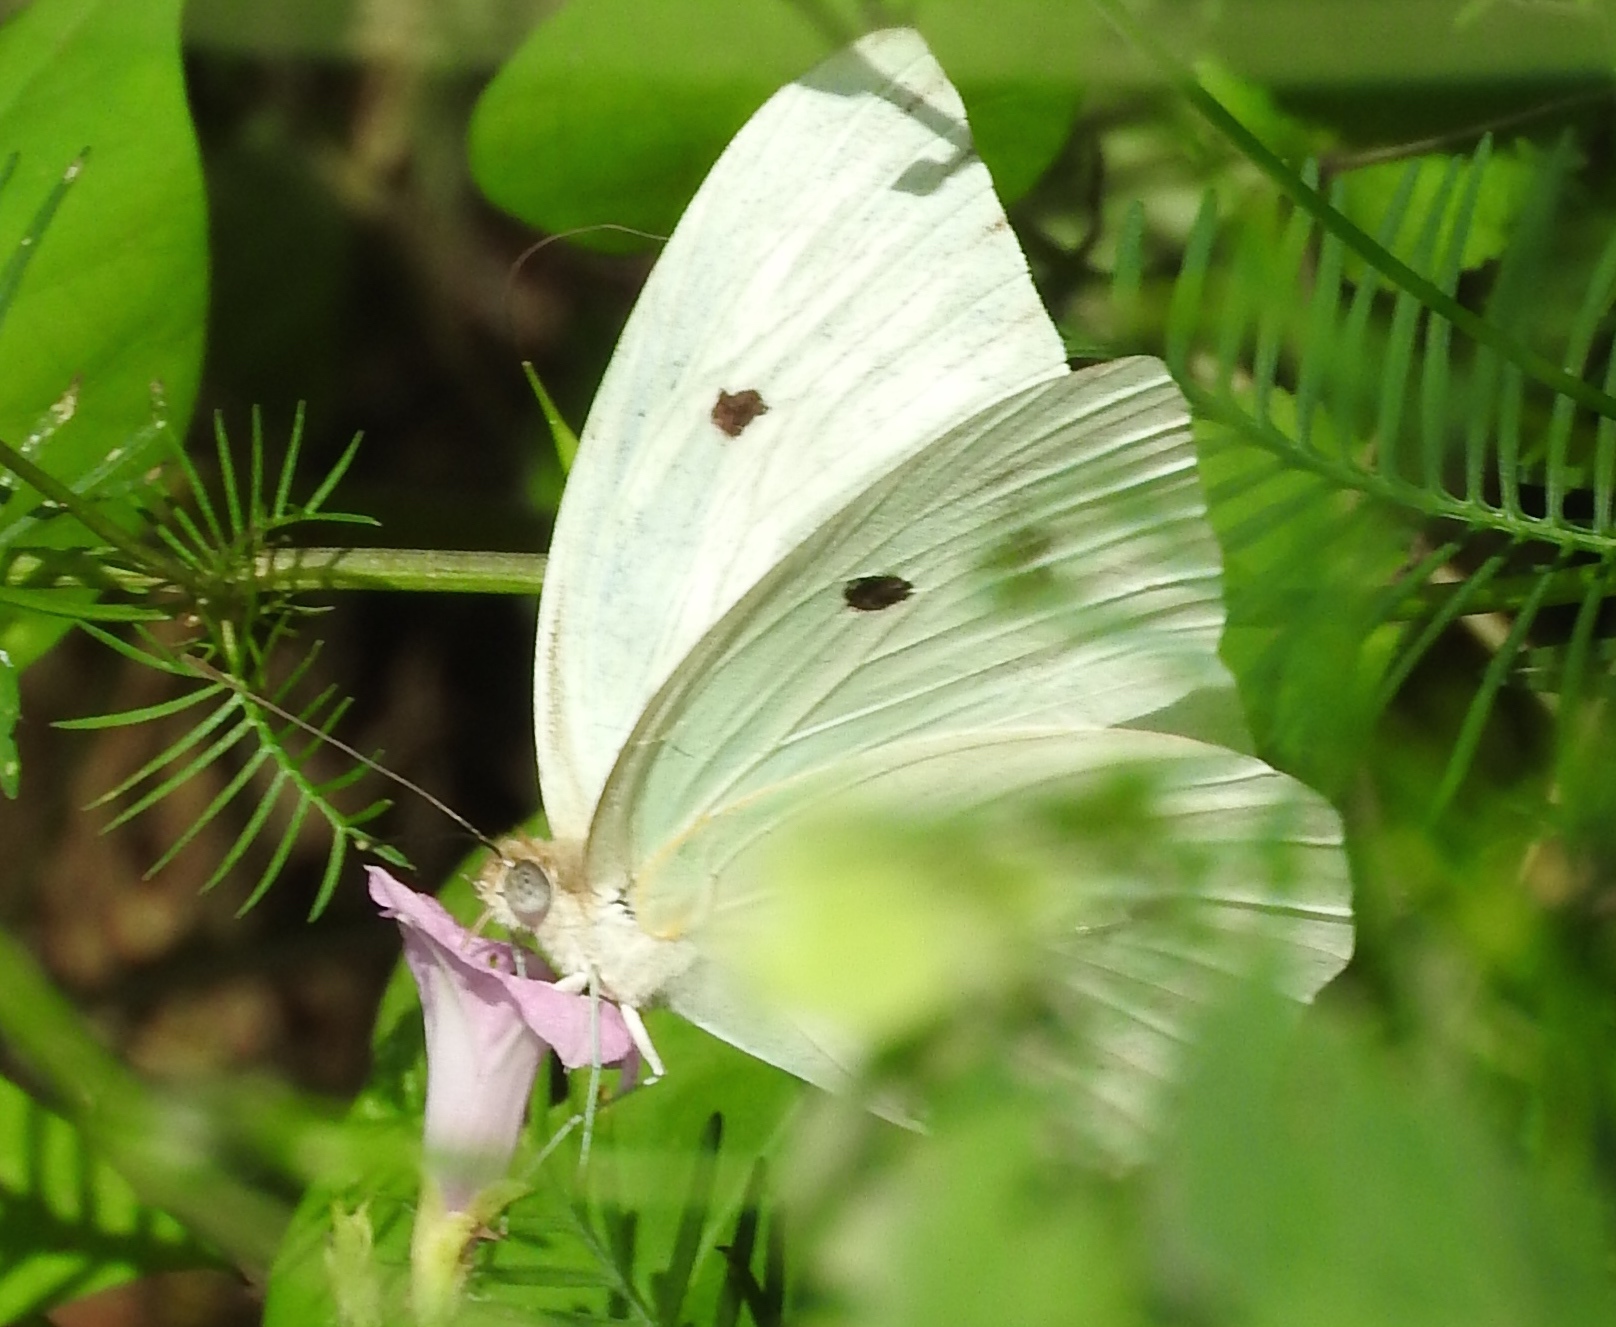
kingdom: Animalia
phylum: Arthropoda
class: Insecta
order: Lepidoptera
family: Pieridae
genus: Ganyra
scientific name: Ganyra josephina
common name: Giant white
